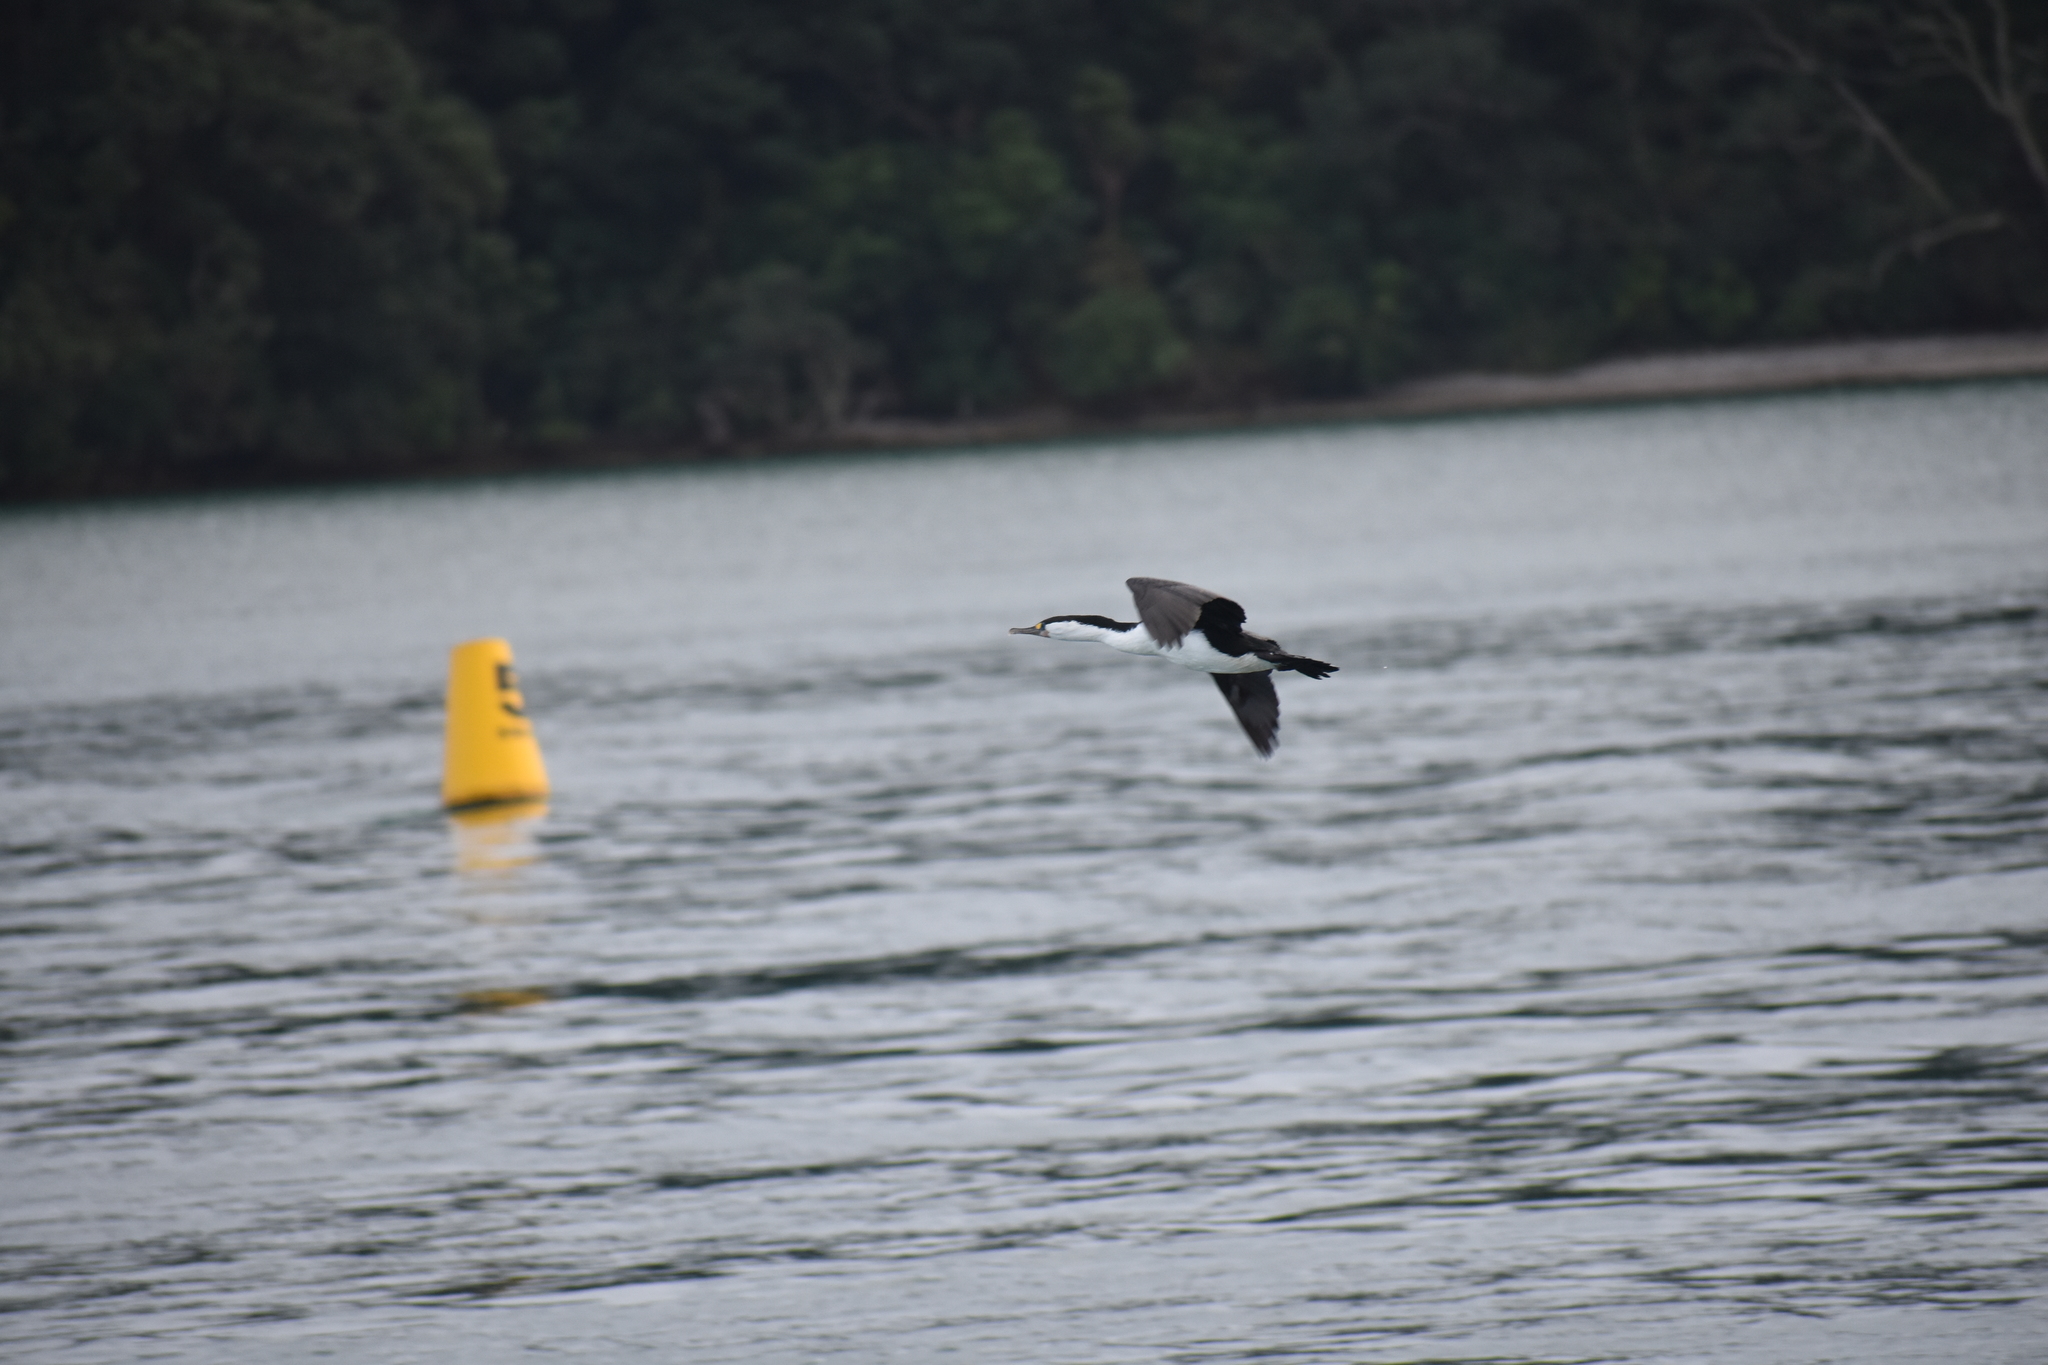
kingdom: Animalia
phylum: Chordata
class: Aves
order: Suliformes
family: Phalacrocoracidae
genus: Phalacrocorax
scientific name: Phalacrocorax varius
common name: Pied cormorant
